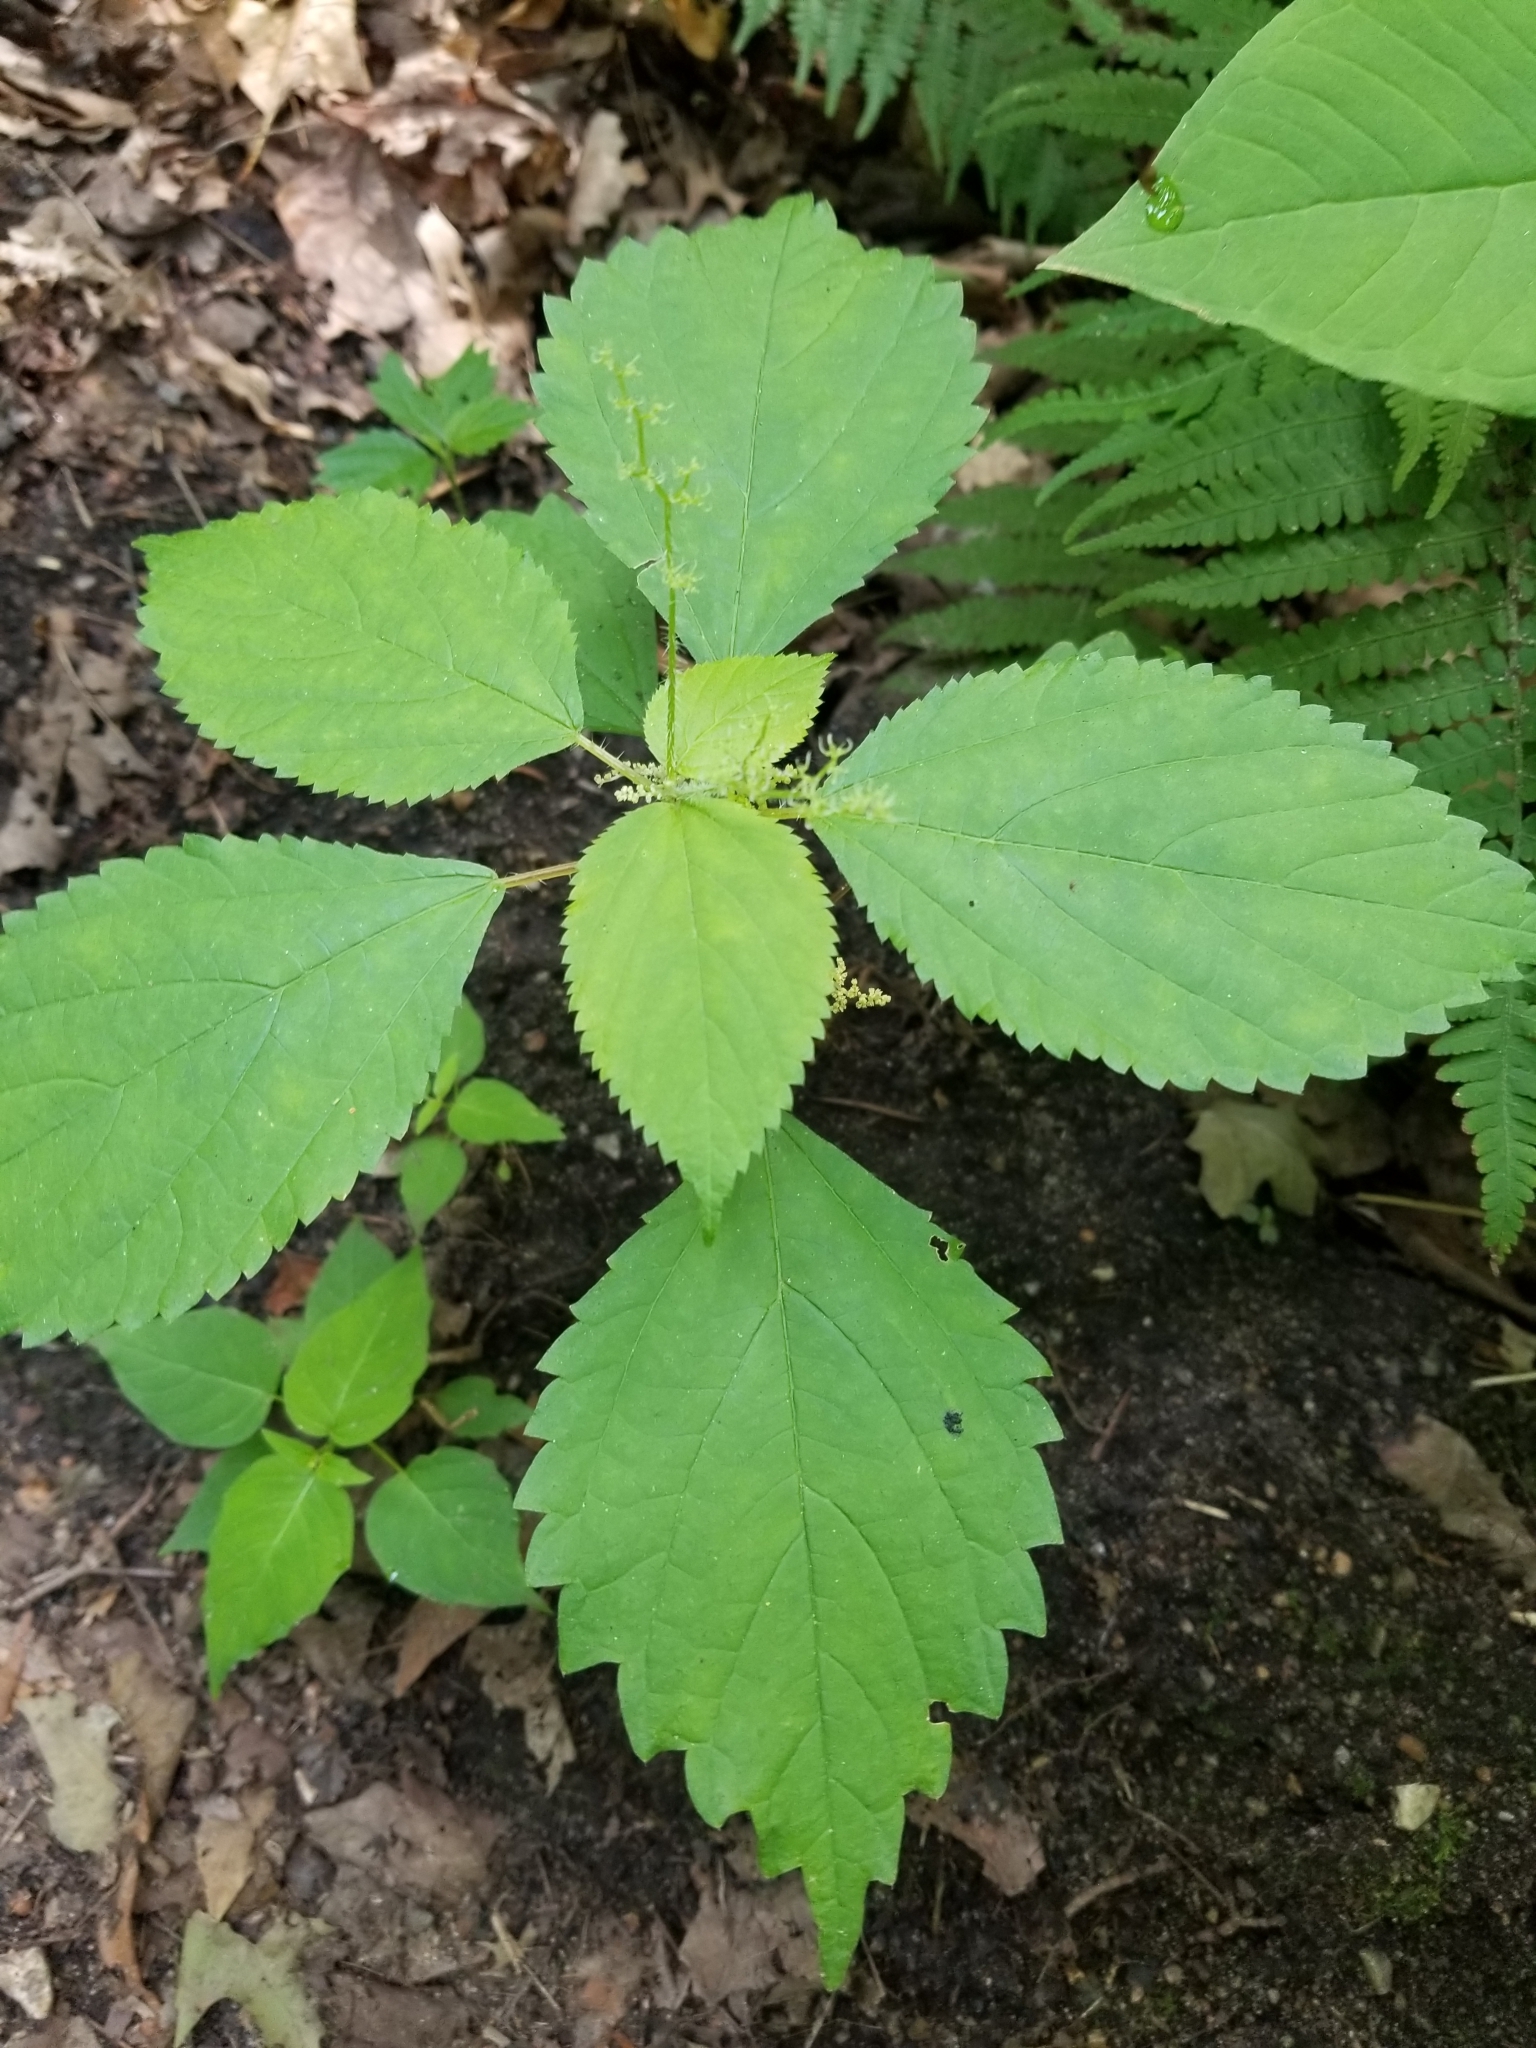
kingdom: Plantae
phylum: Tracheophyta
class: Magnoliopsida
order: Rosales
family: Urticaceae
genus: Laportea
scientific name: Laportea canadensis
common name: Canada nettle
